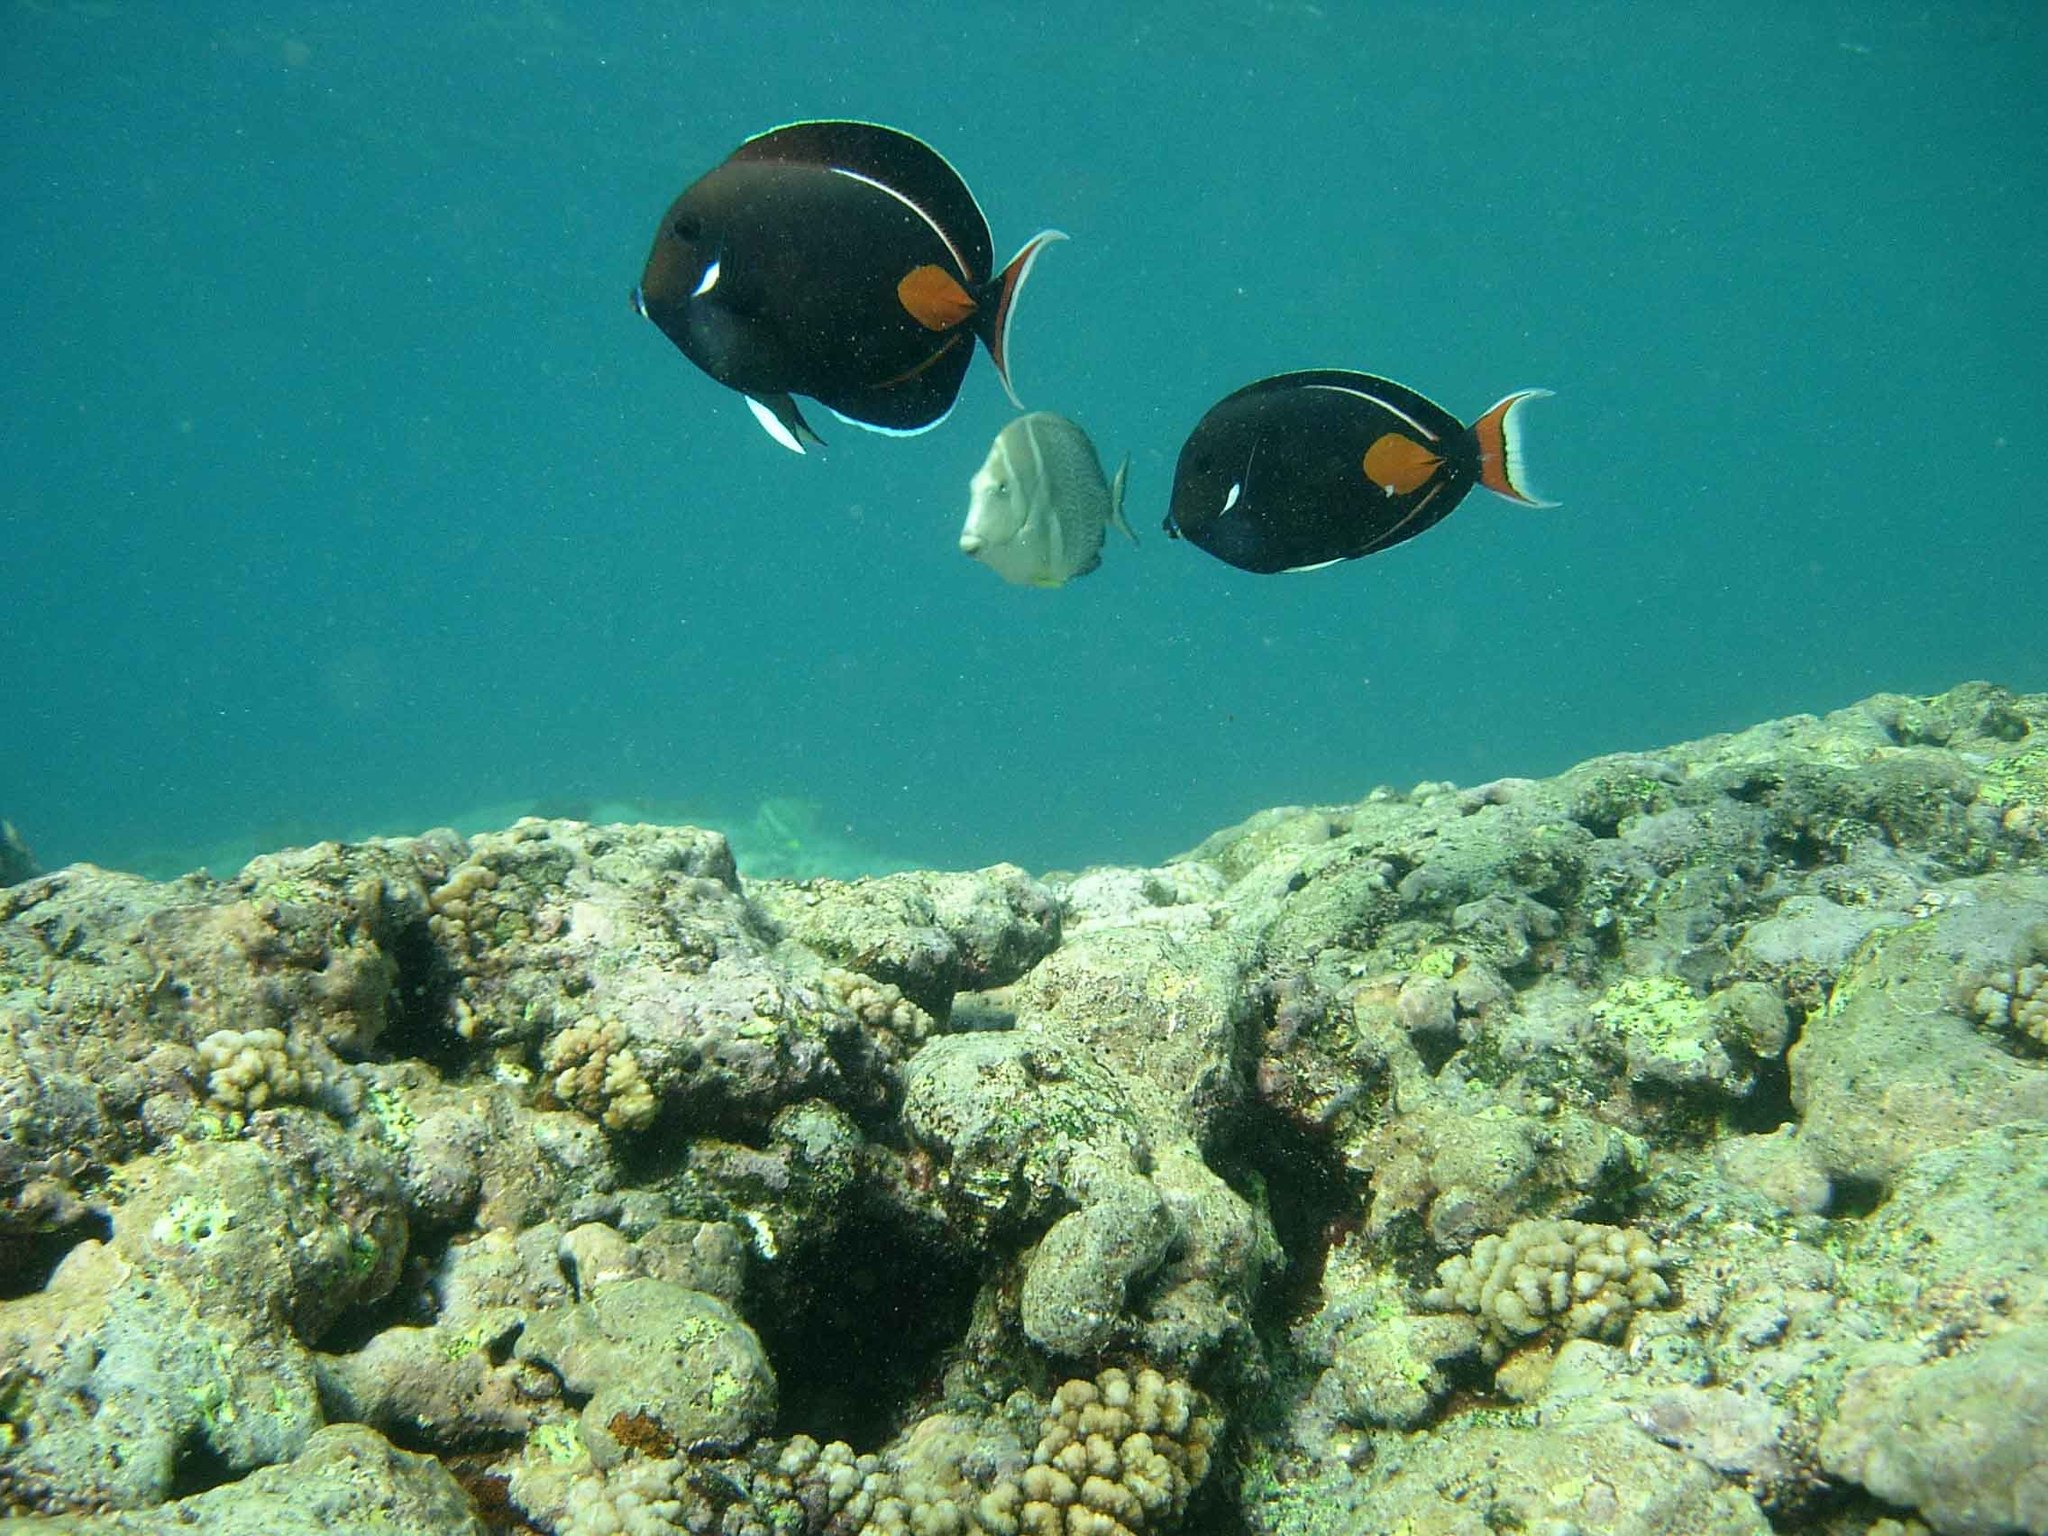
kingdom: Animalia
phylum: Chordata
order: Perciformes
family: Acanthuridae
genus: Acanthurus
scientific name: Acanthurus achilles
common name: Achilles tang
